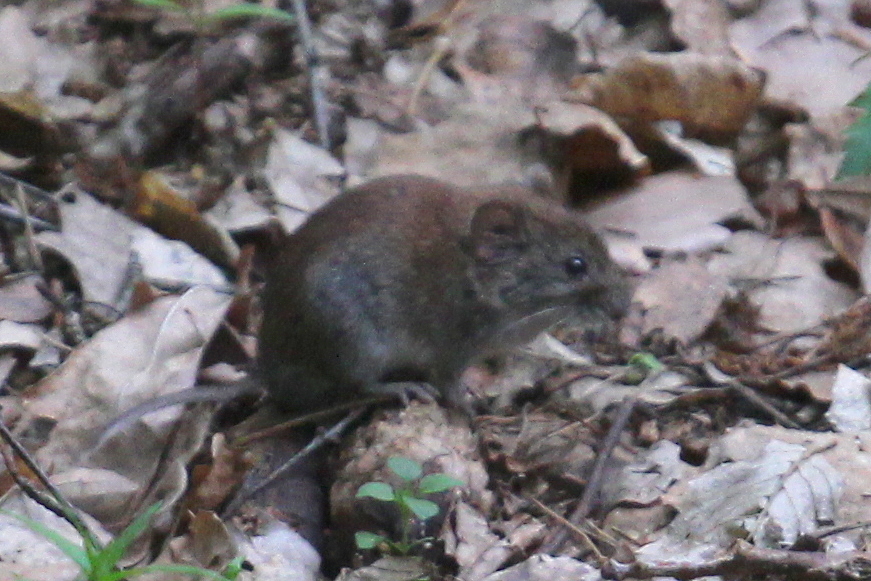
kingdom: Animalia
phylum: Chordata
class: Mammalia
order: Rodentia
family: Cricetidae
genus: Myodes
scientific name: Myodes glareolus
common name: Bank vole
